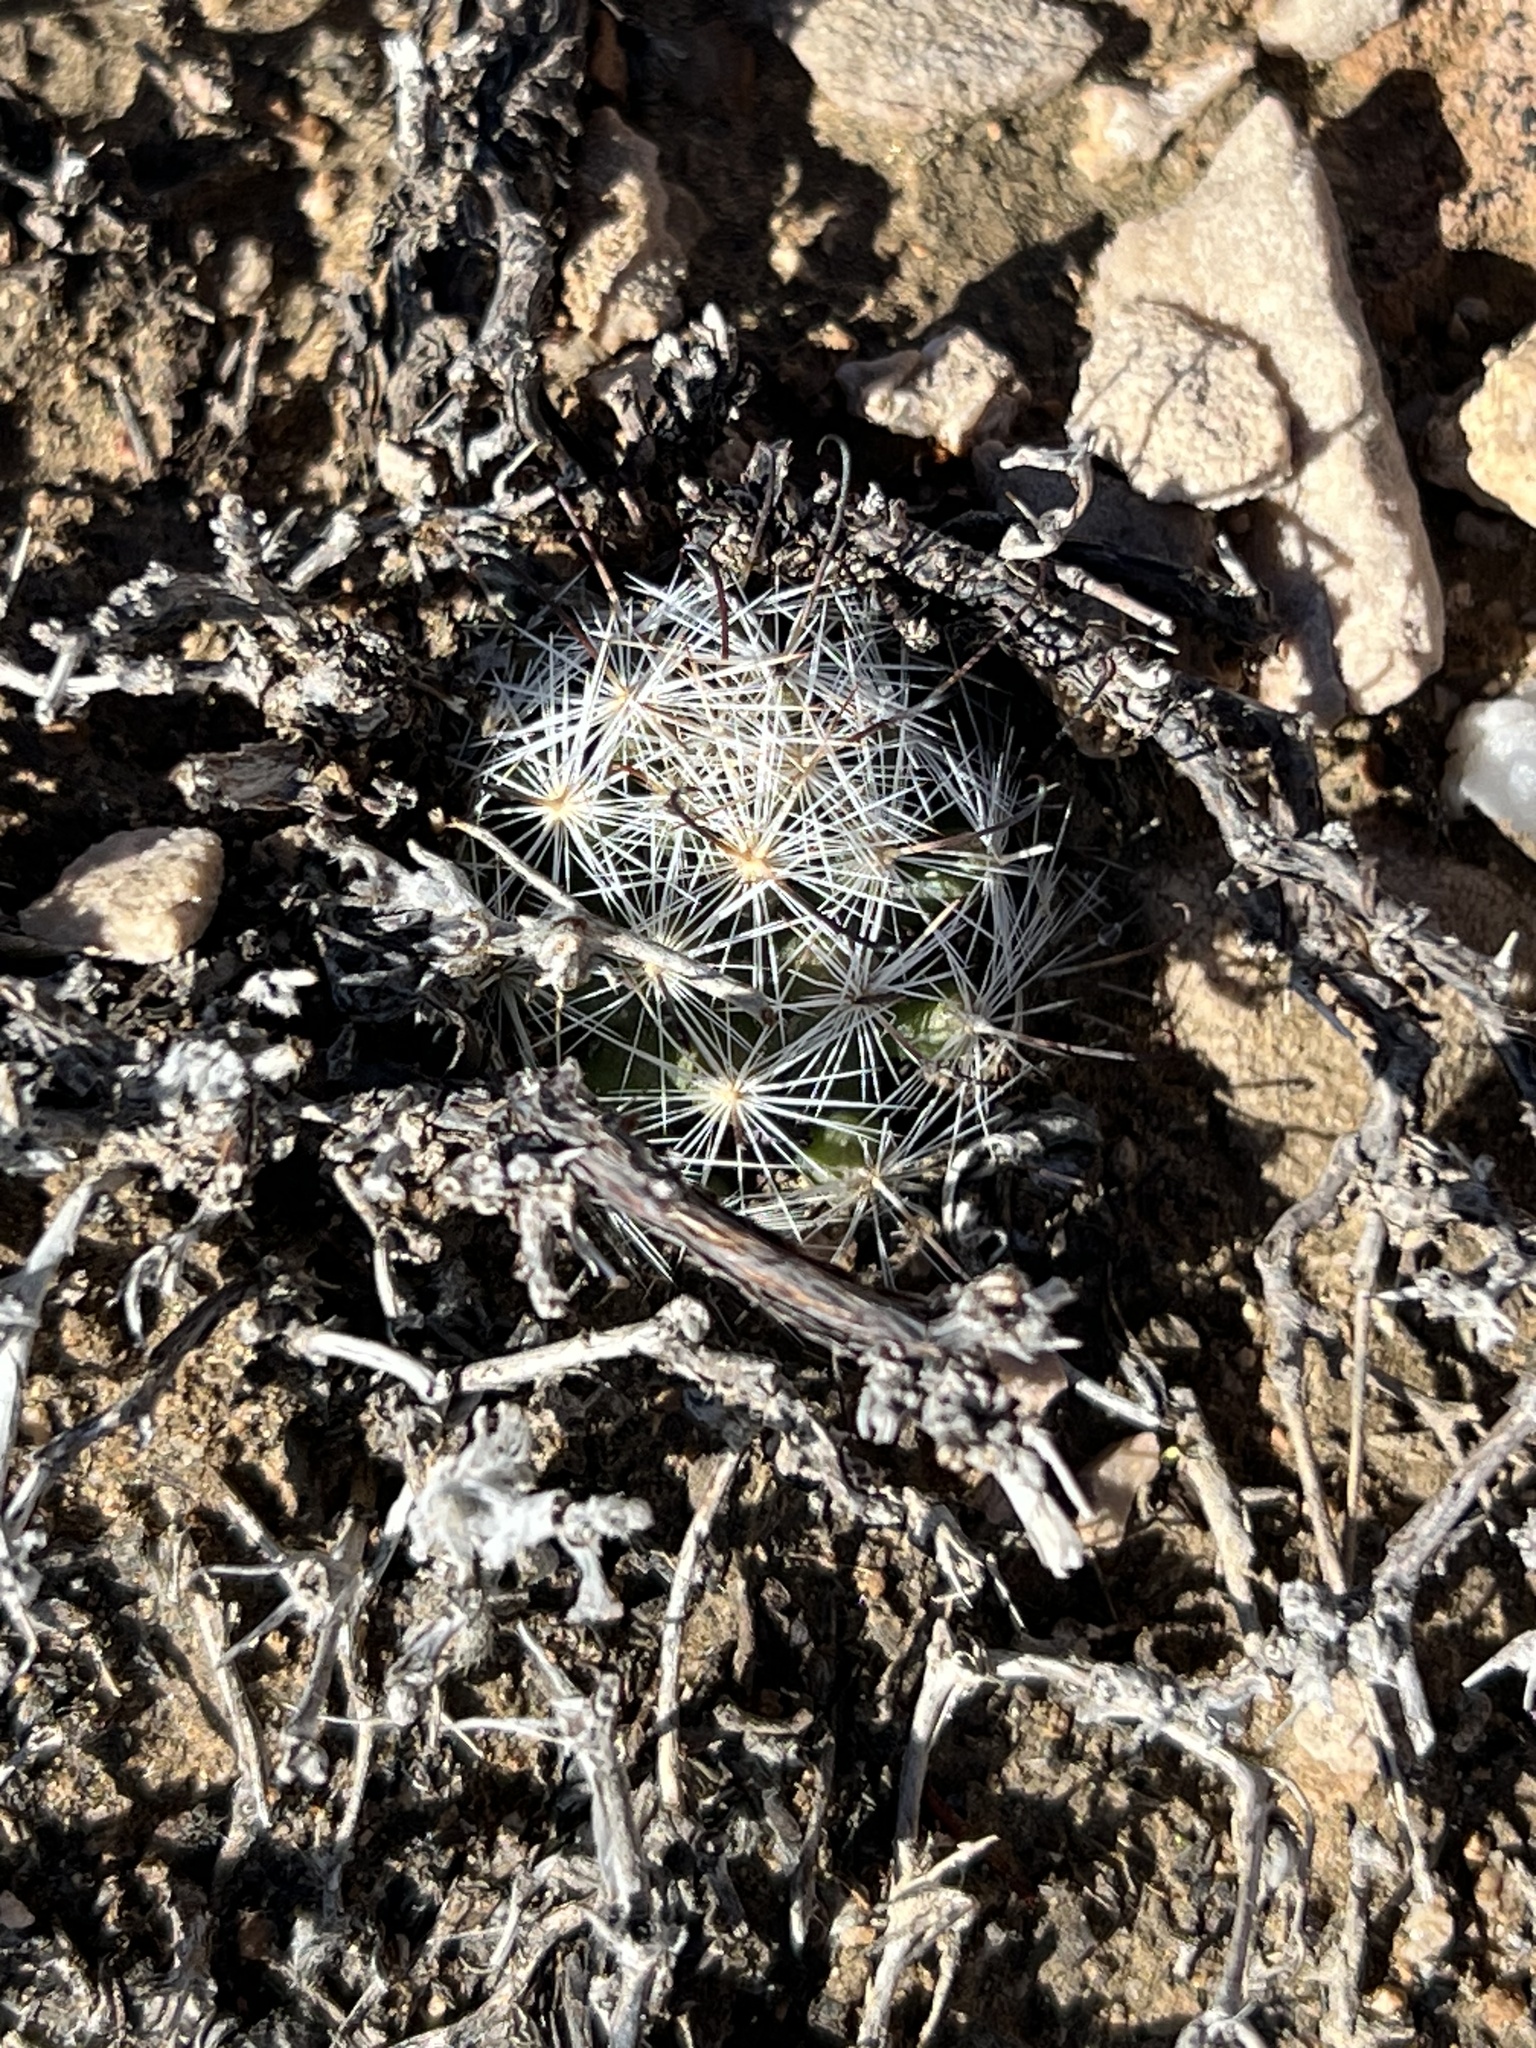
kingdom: Plantae
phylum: Tracheophyta
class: Magnoliopsida
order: Caryophyllales
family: Cactaceae
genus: Cochemiea
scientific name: Cochemiea tetrancistra
